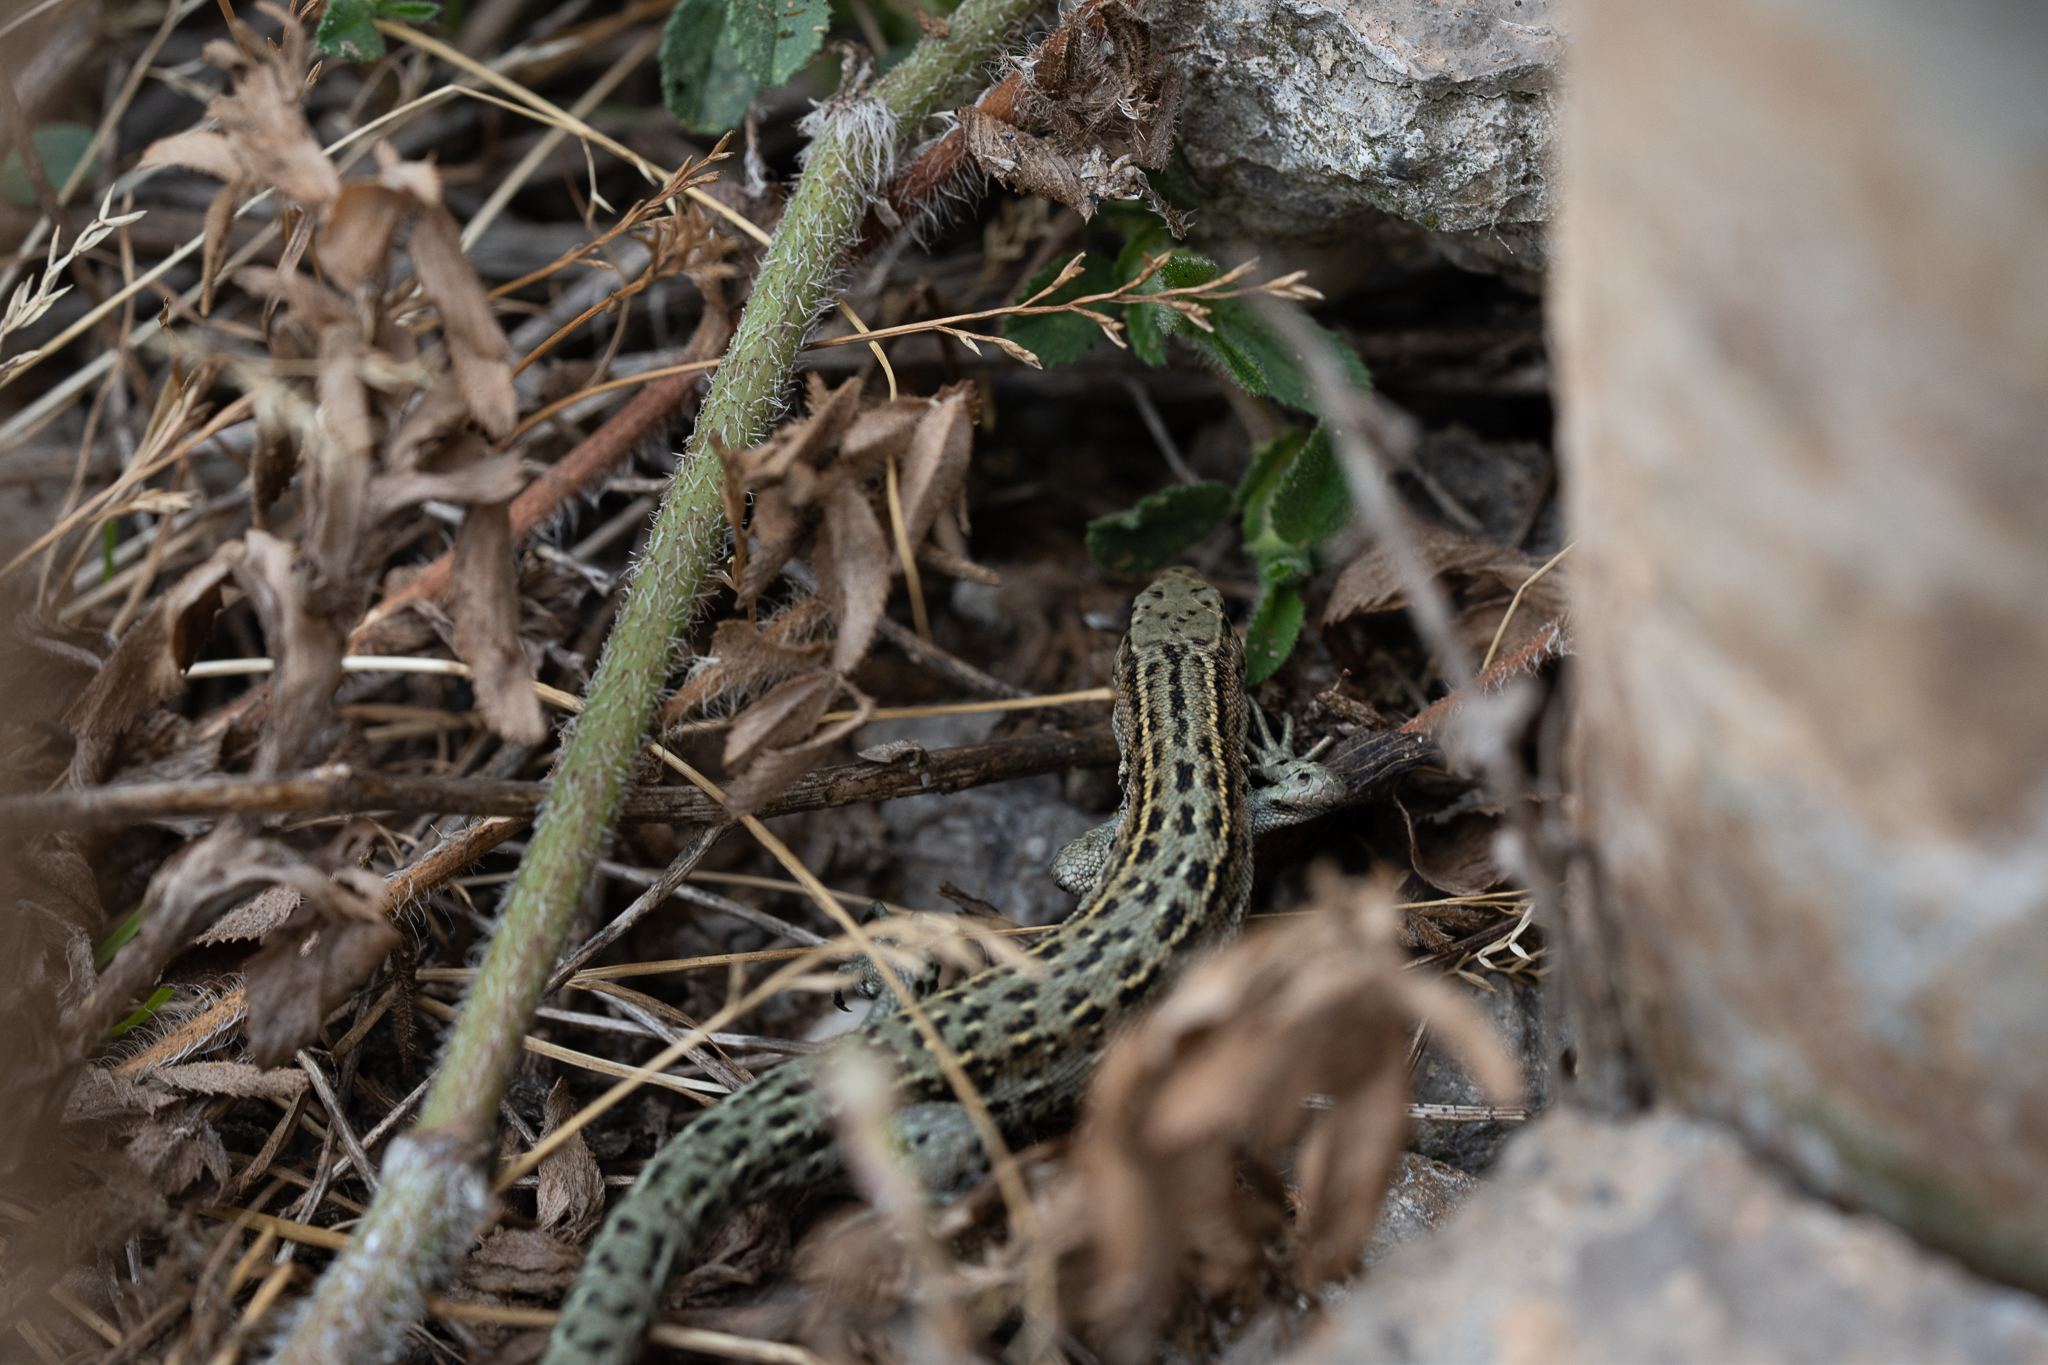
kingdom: Animalia
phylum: Chordata
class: Squamata
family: Lacertidae
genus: Zootoca
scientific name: Zootoca vivipara
